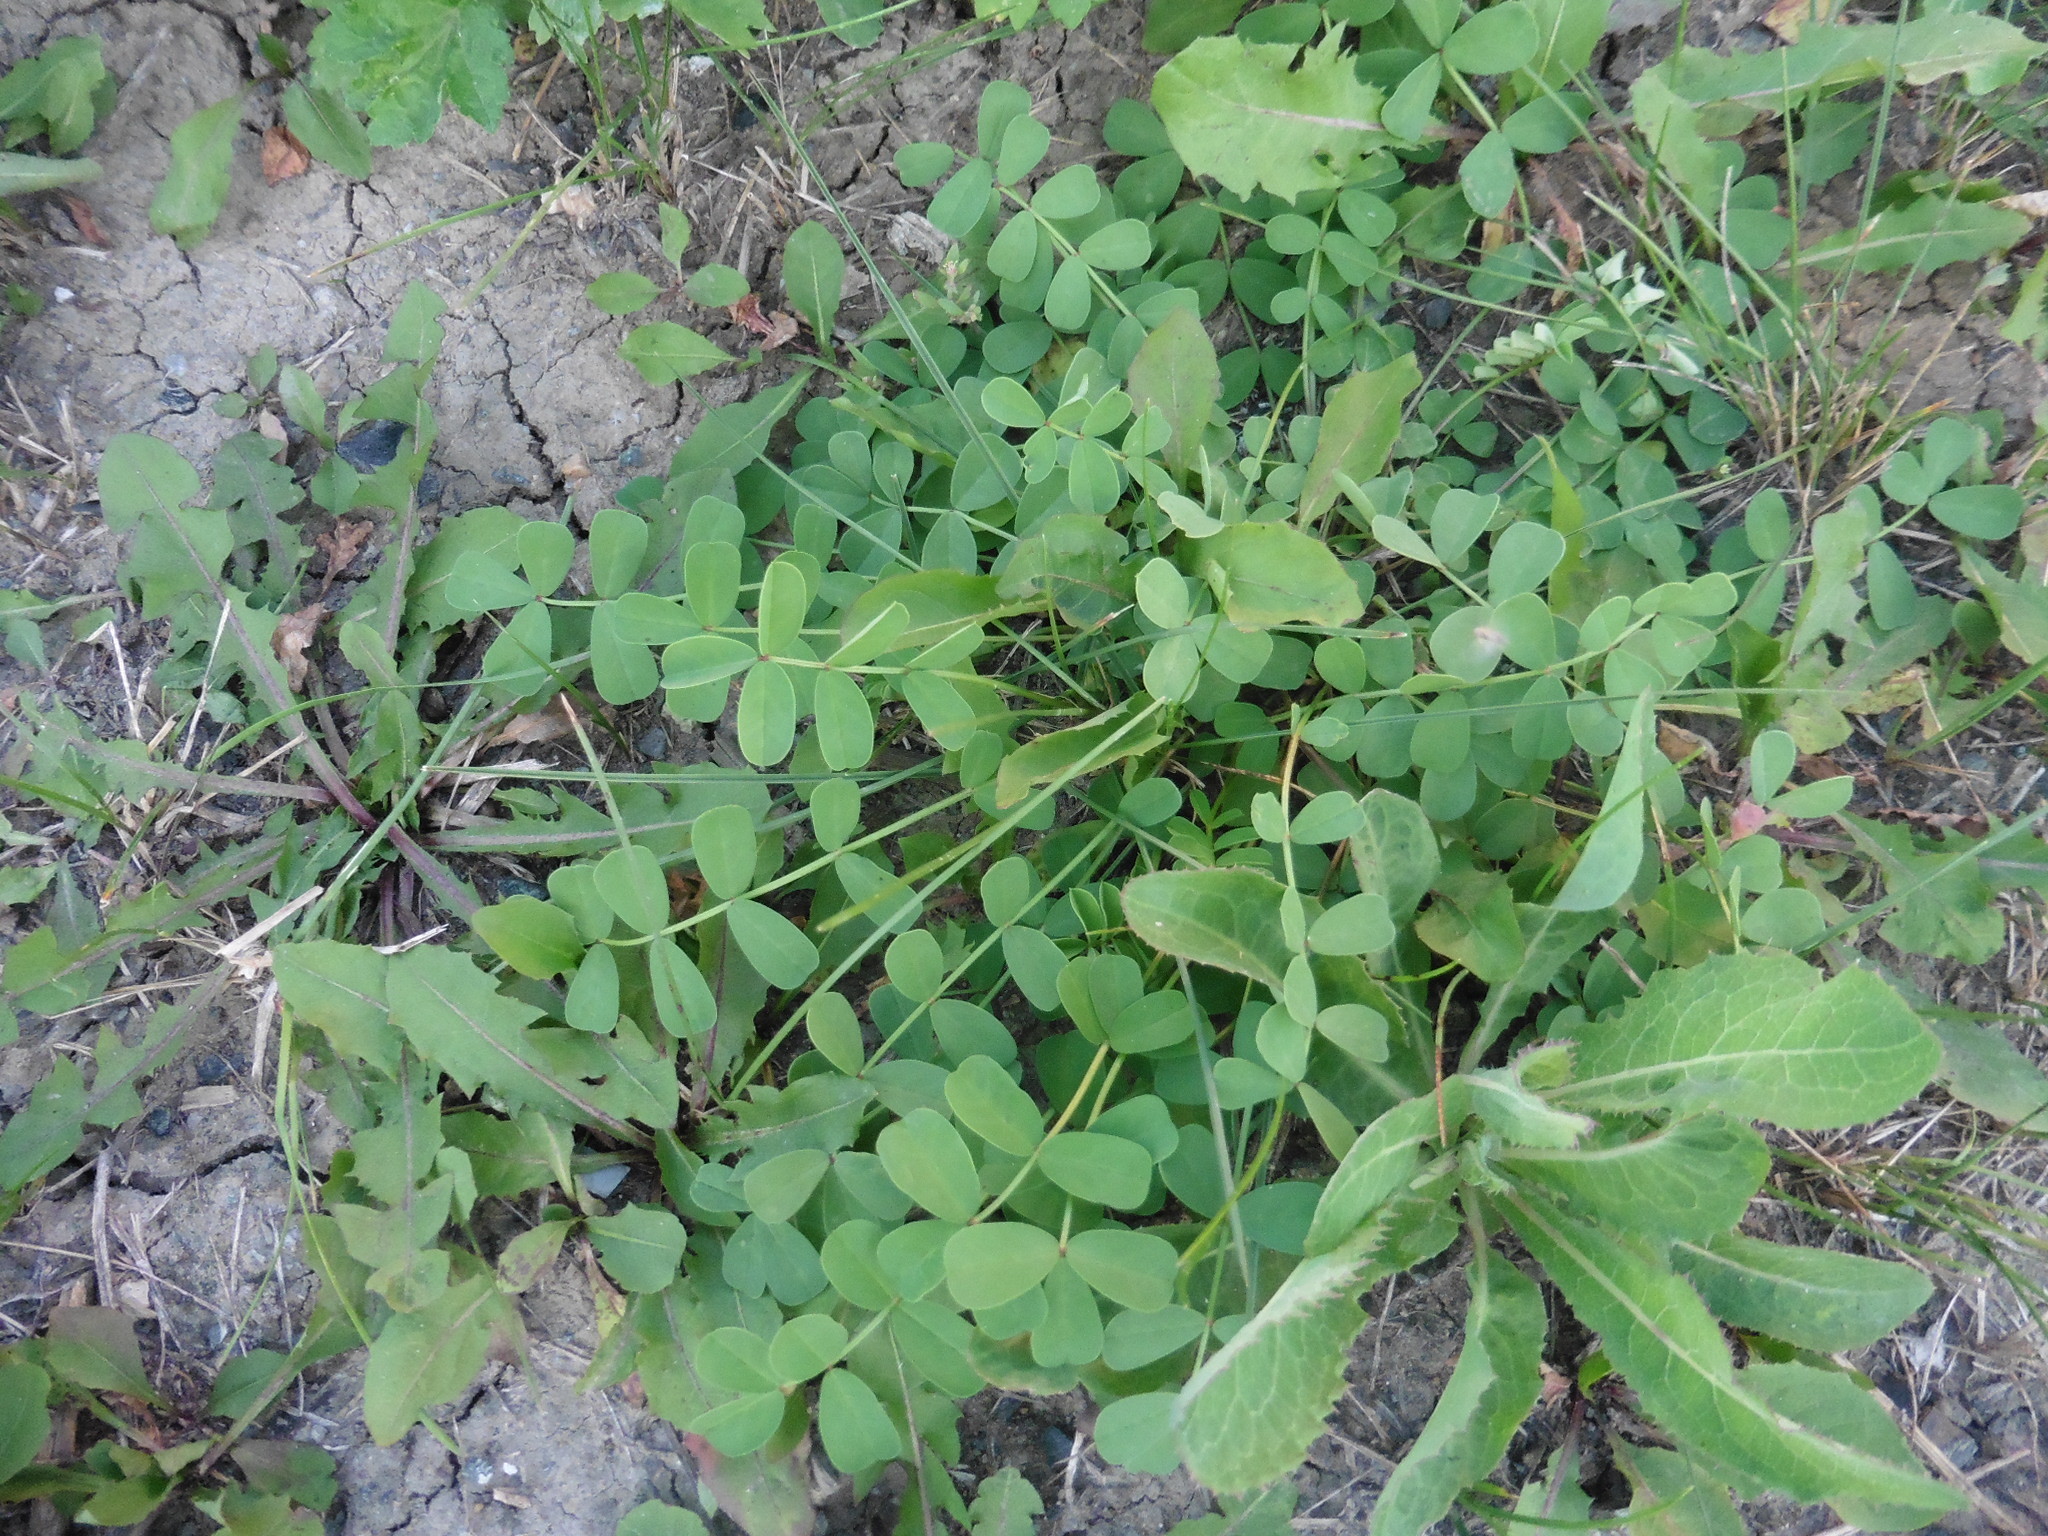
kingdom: Plantae
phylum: Tracheophyta
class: Magnoliopsida
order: Fabales
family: Fabaceae
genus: Coronilla
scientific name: Coronilla varia
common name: Crownvetch
